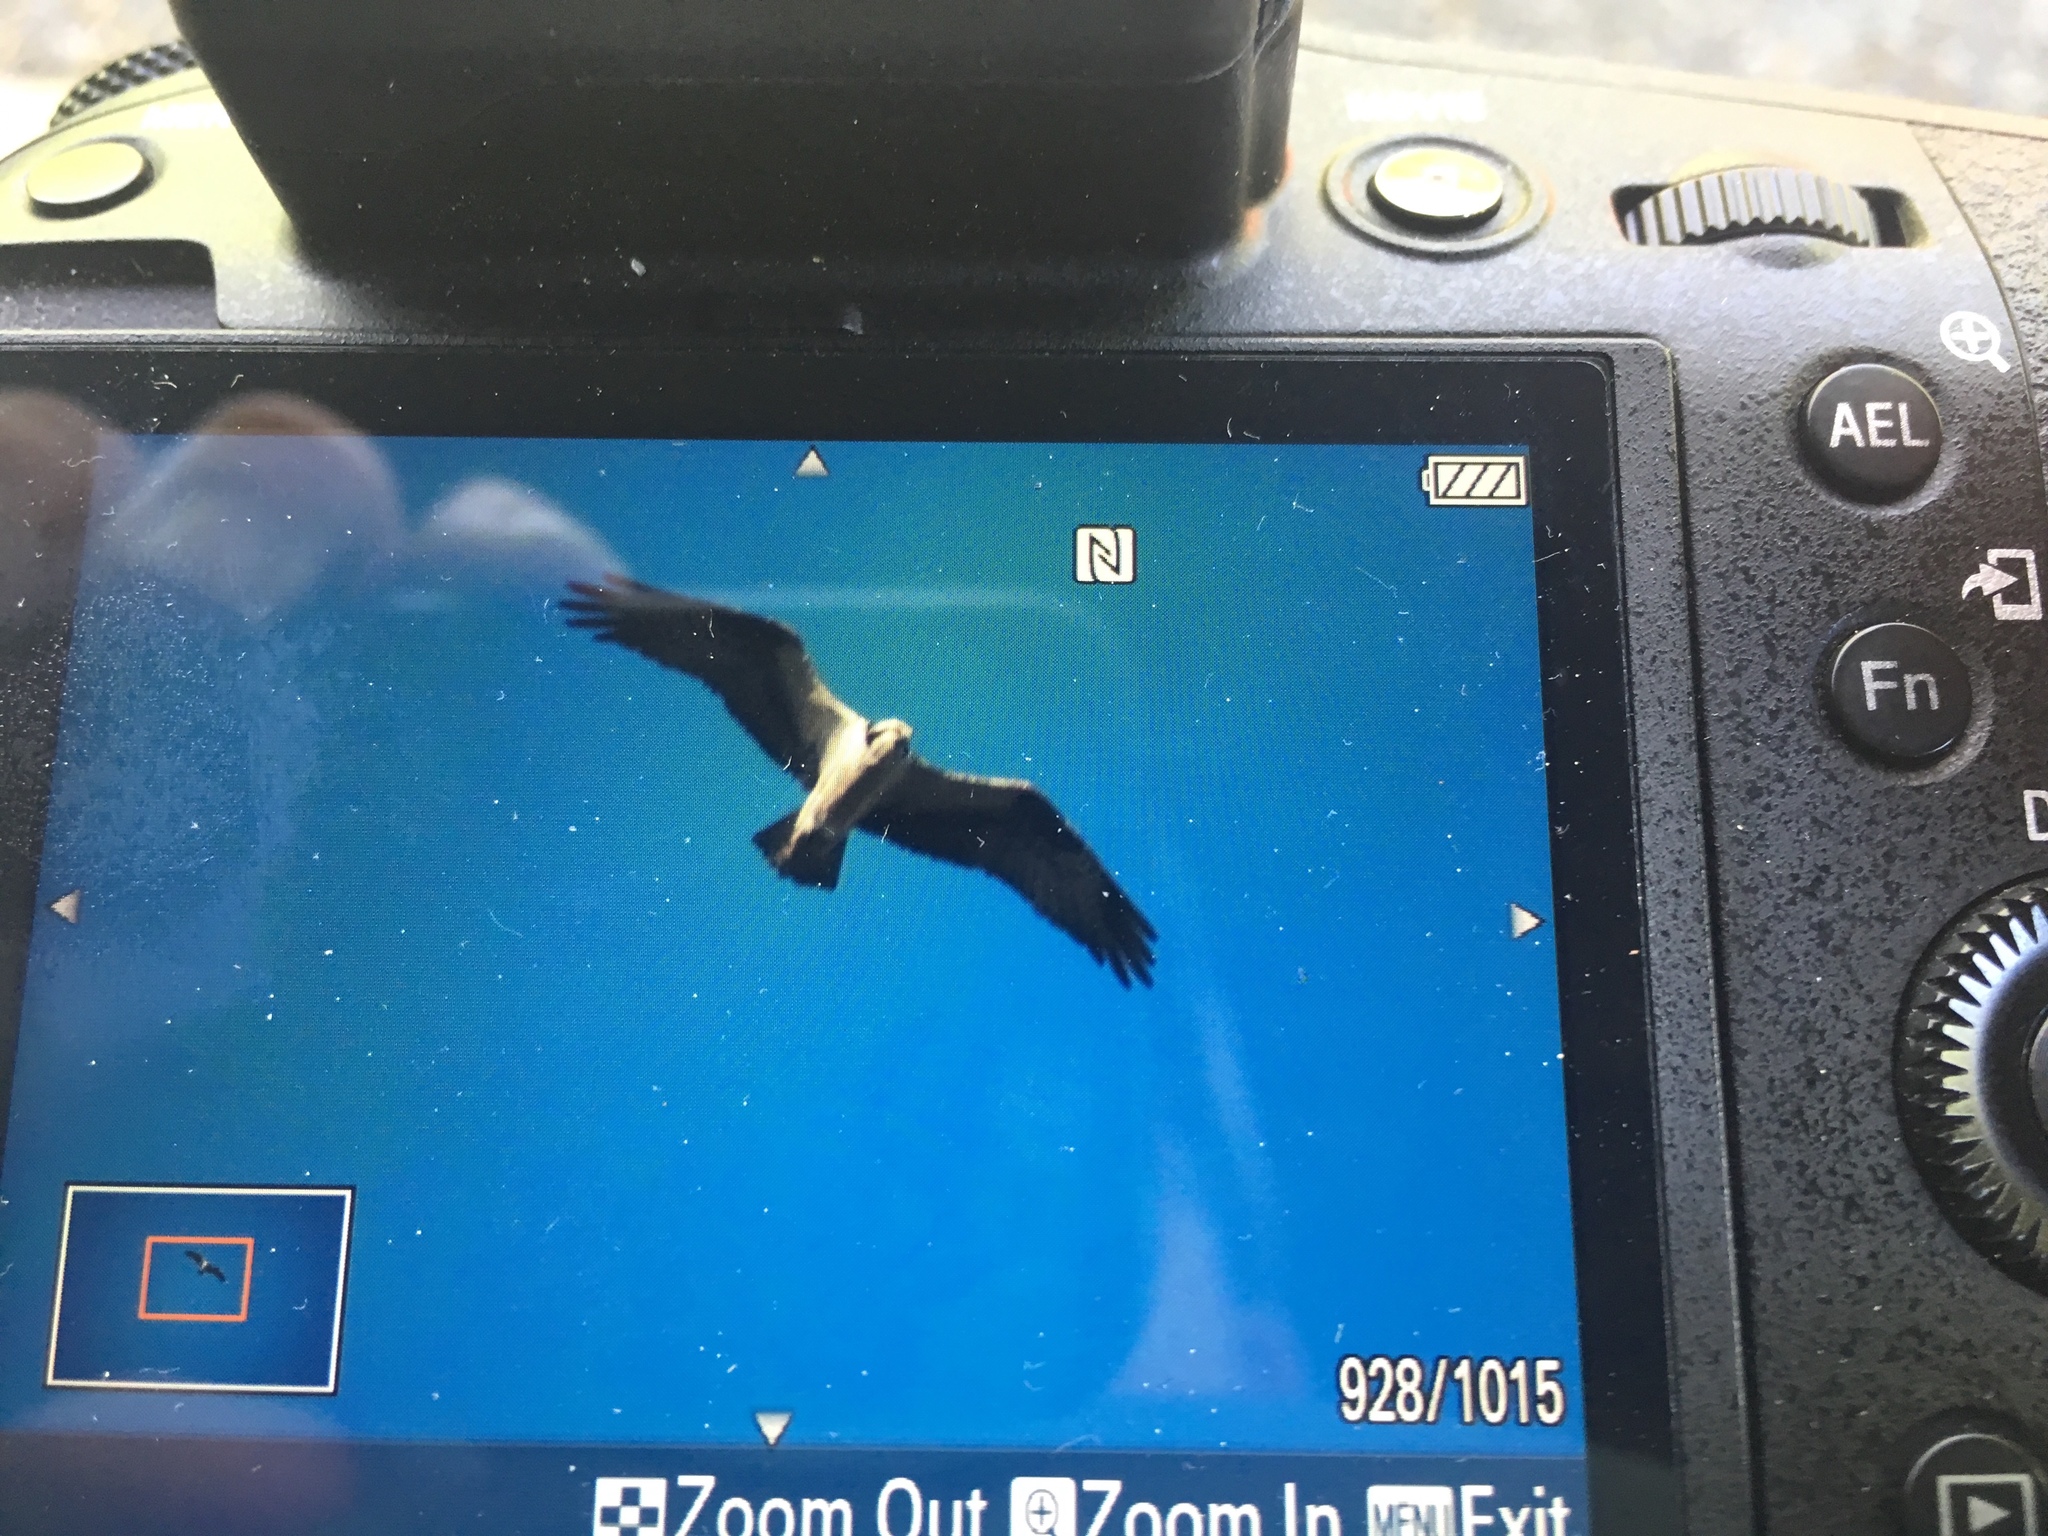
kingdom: Animalia
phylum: Chordata
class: Aves
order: Accipitriformes
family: Pandionidae
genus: Pandion
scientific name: Pandion haliaetus
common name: Osprey
